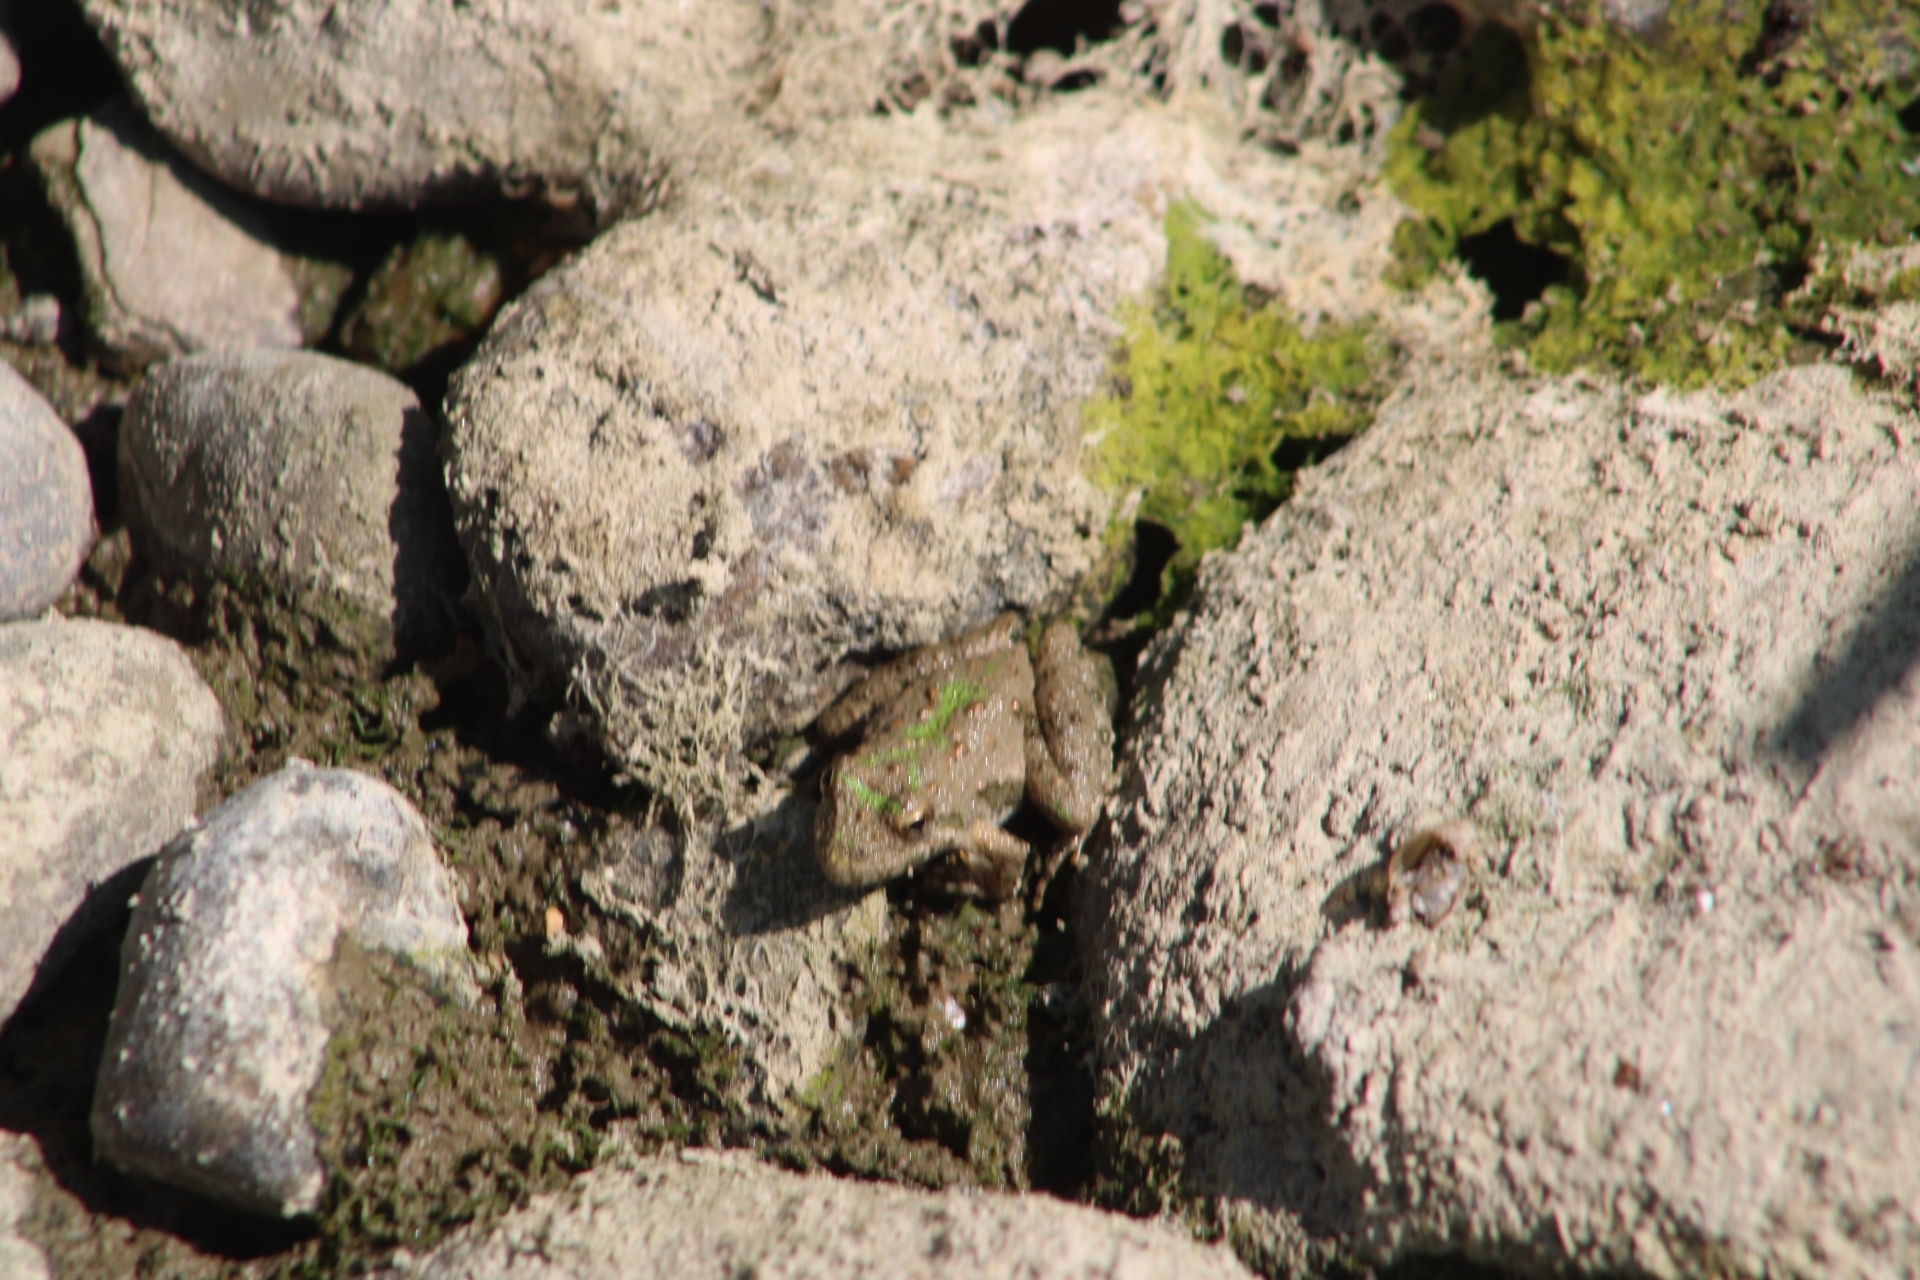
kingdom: Animalia
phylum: Chordata
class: Amphibia
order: Anura
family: Hylidae
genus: Acris
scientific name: Acris blanchardi
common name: Blanchard's cricket frog
